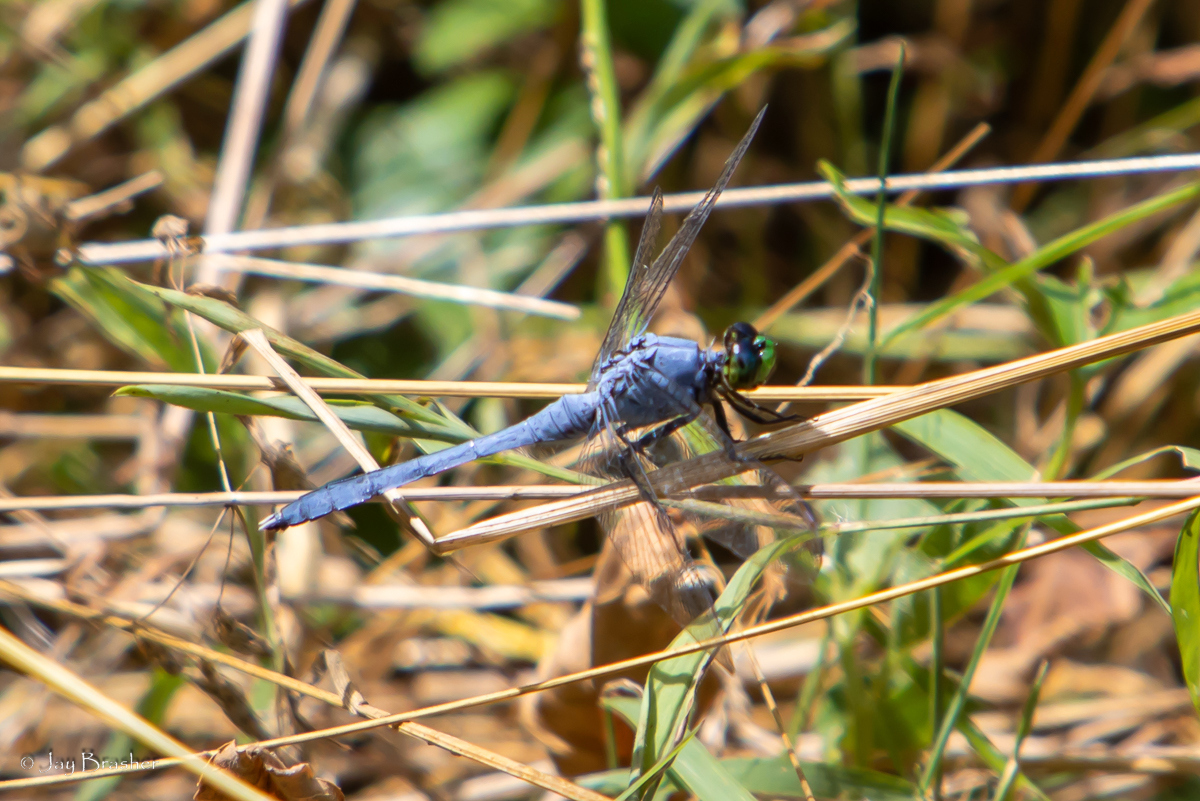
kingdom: Animalia
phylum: Arthropoda
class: Insecta
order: Odonata
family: Libellulidae
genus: Erythemis
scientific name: Erythemis simplicicollis
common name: Eastern pondhawk
